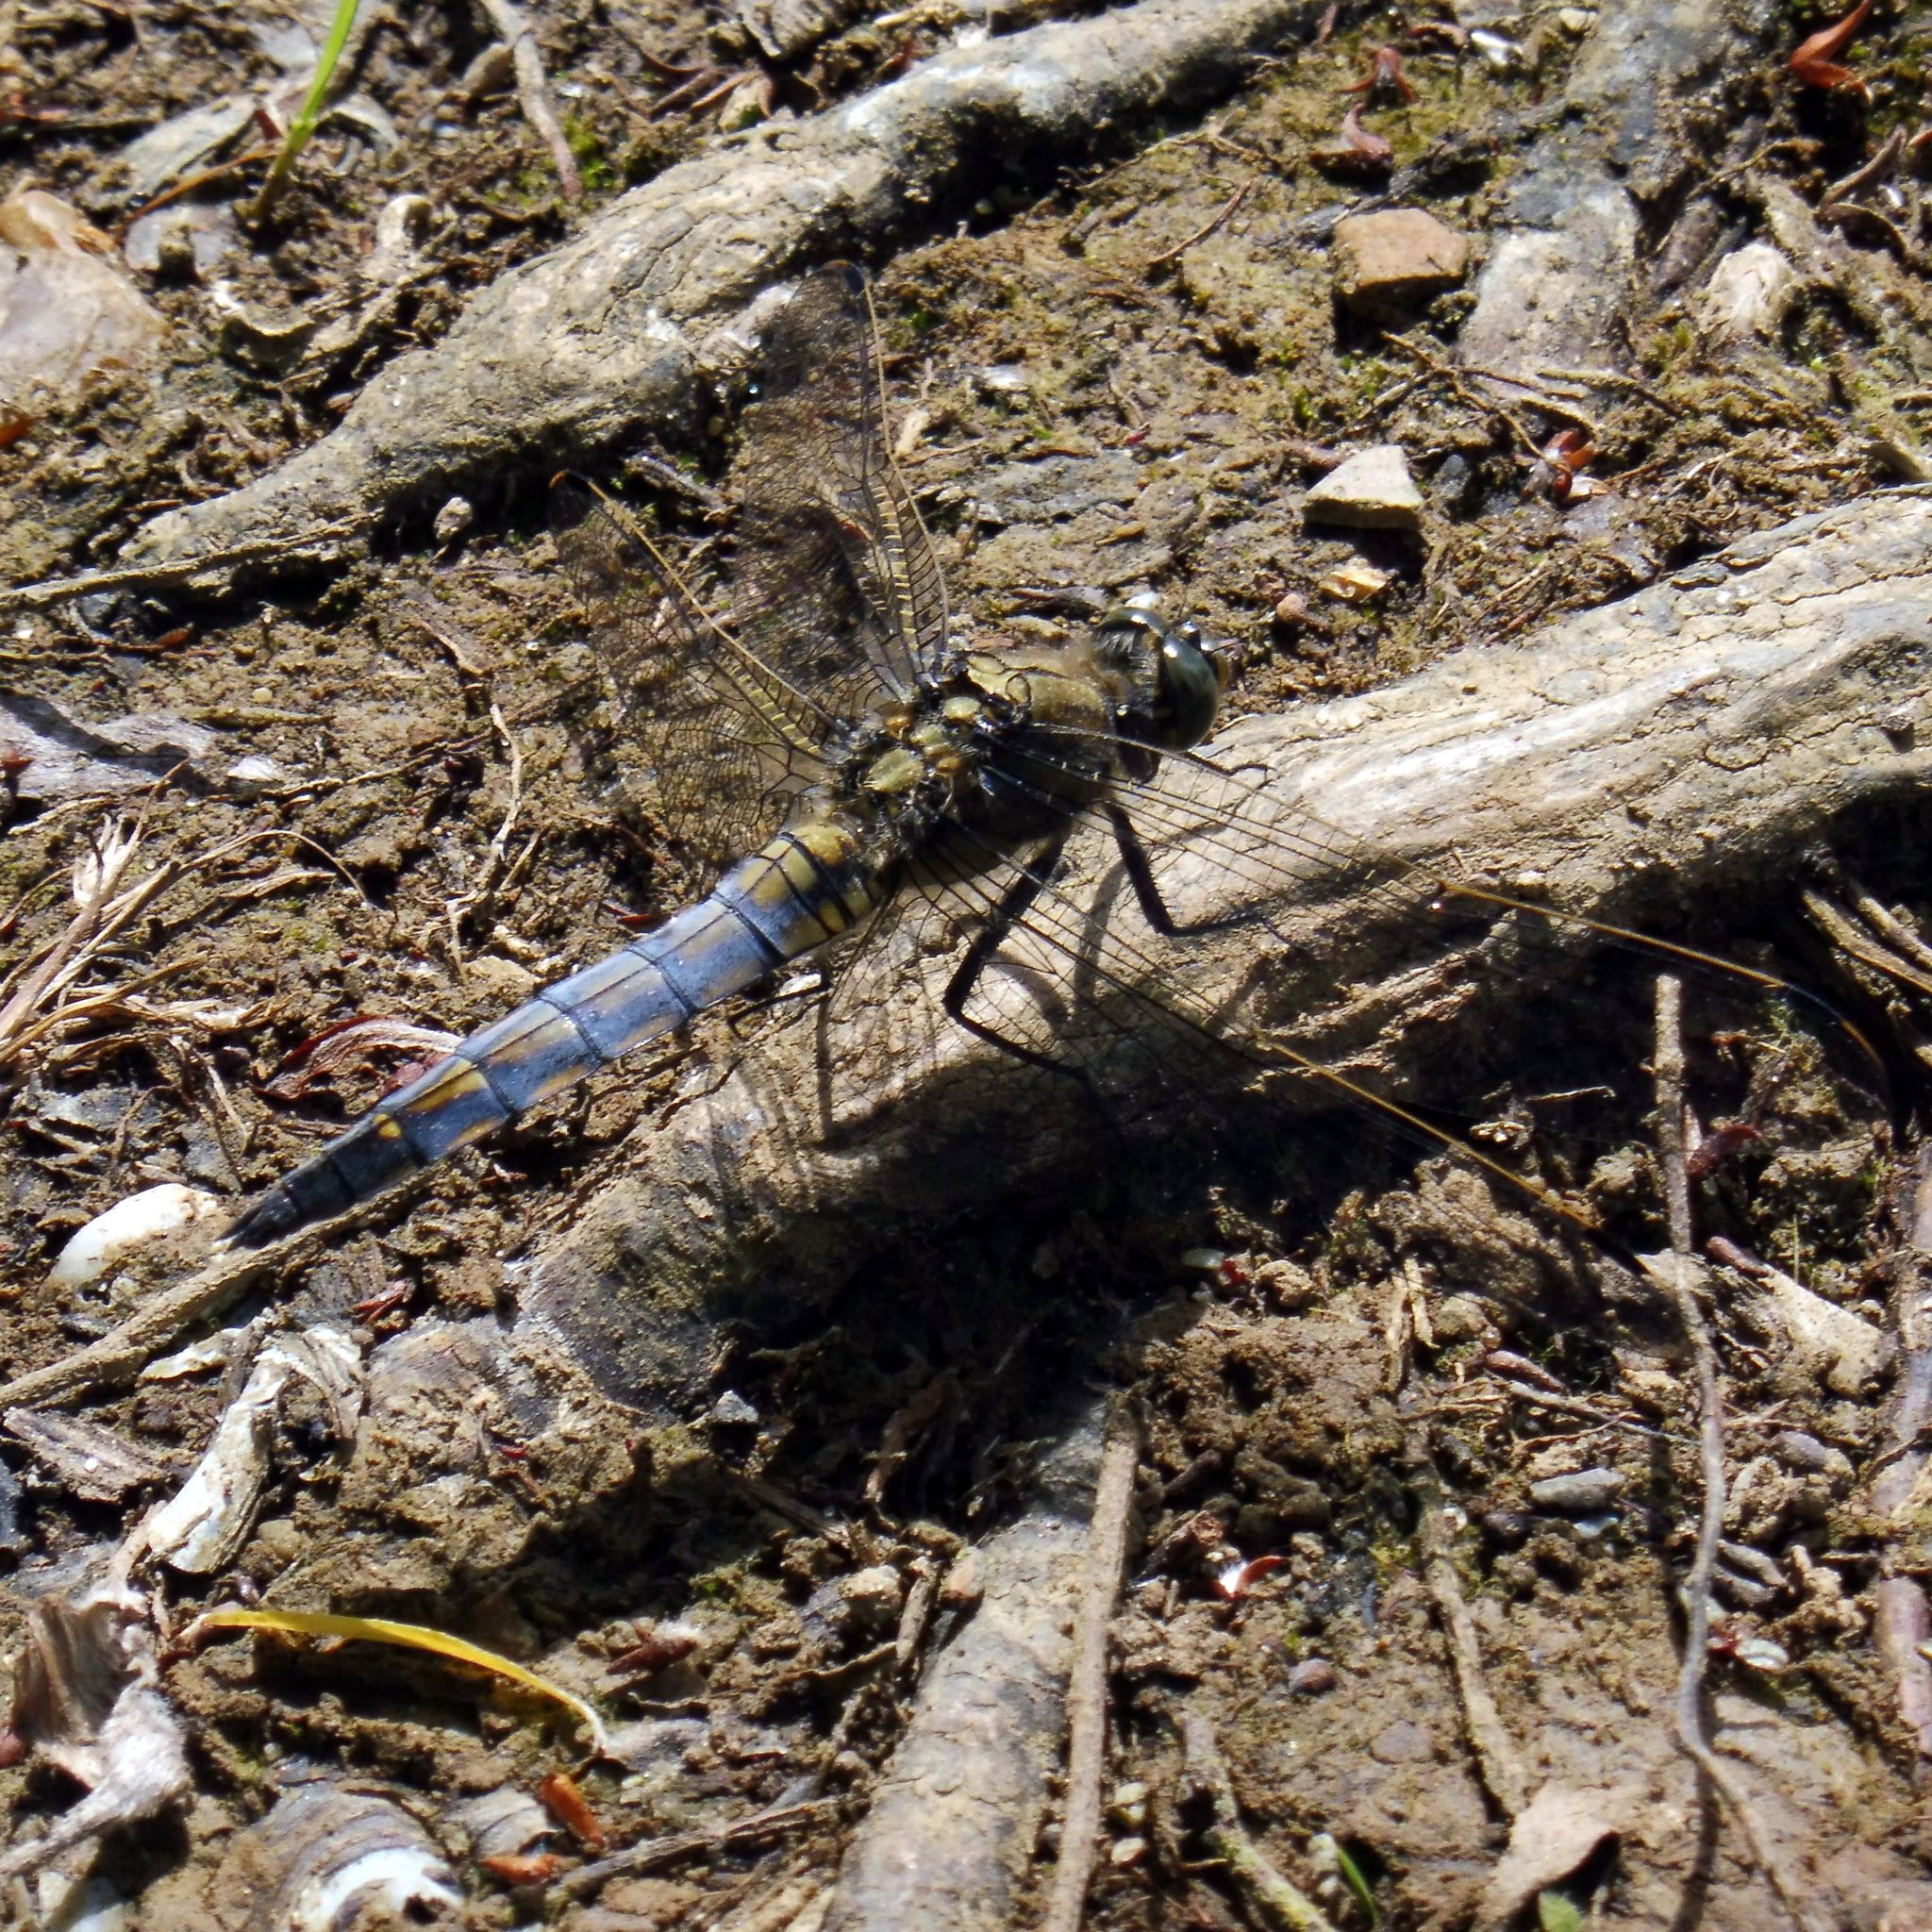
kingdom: Animalia
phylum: Arthropoda
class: Insecta
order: Odonata
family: Libellulidae
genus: Orthetrum
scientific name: Orthetrum cancellatum
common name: Black-tailed skimmer
